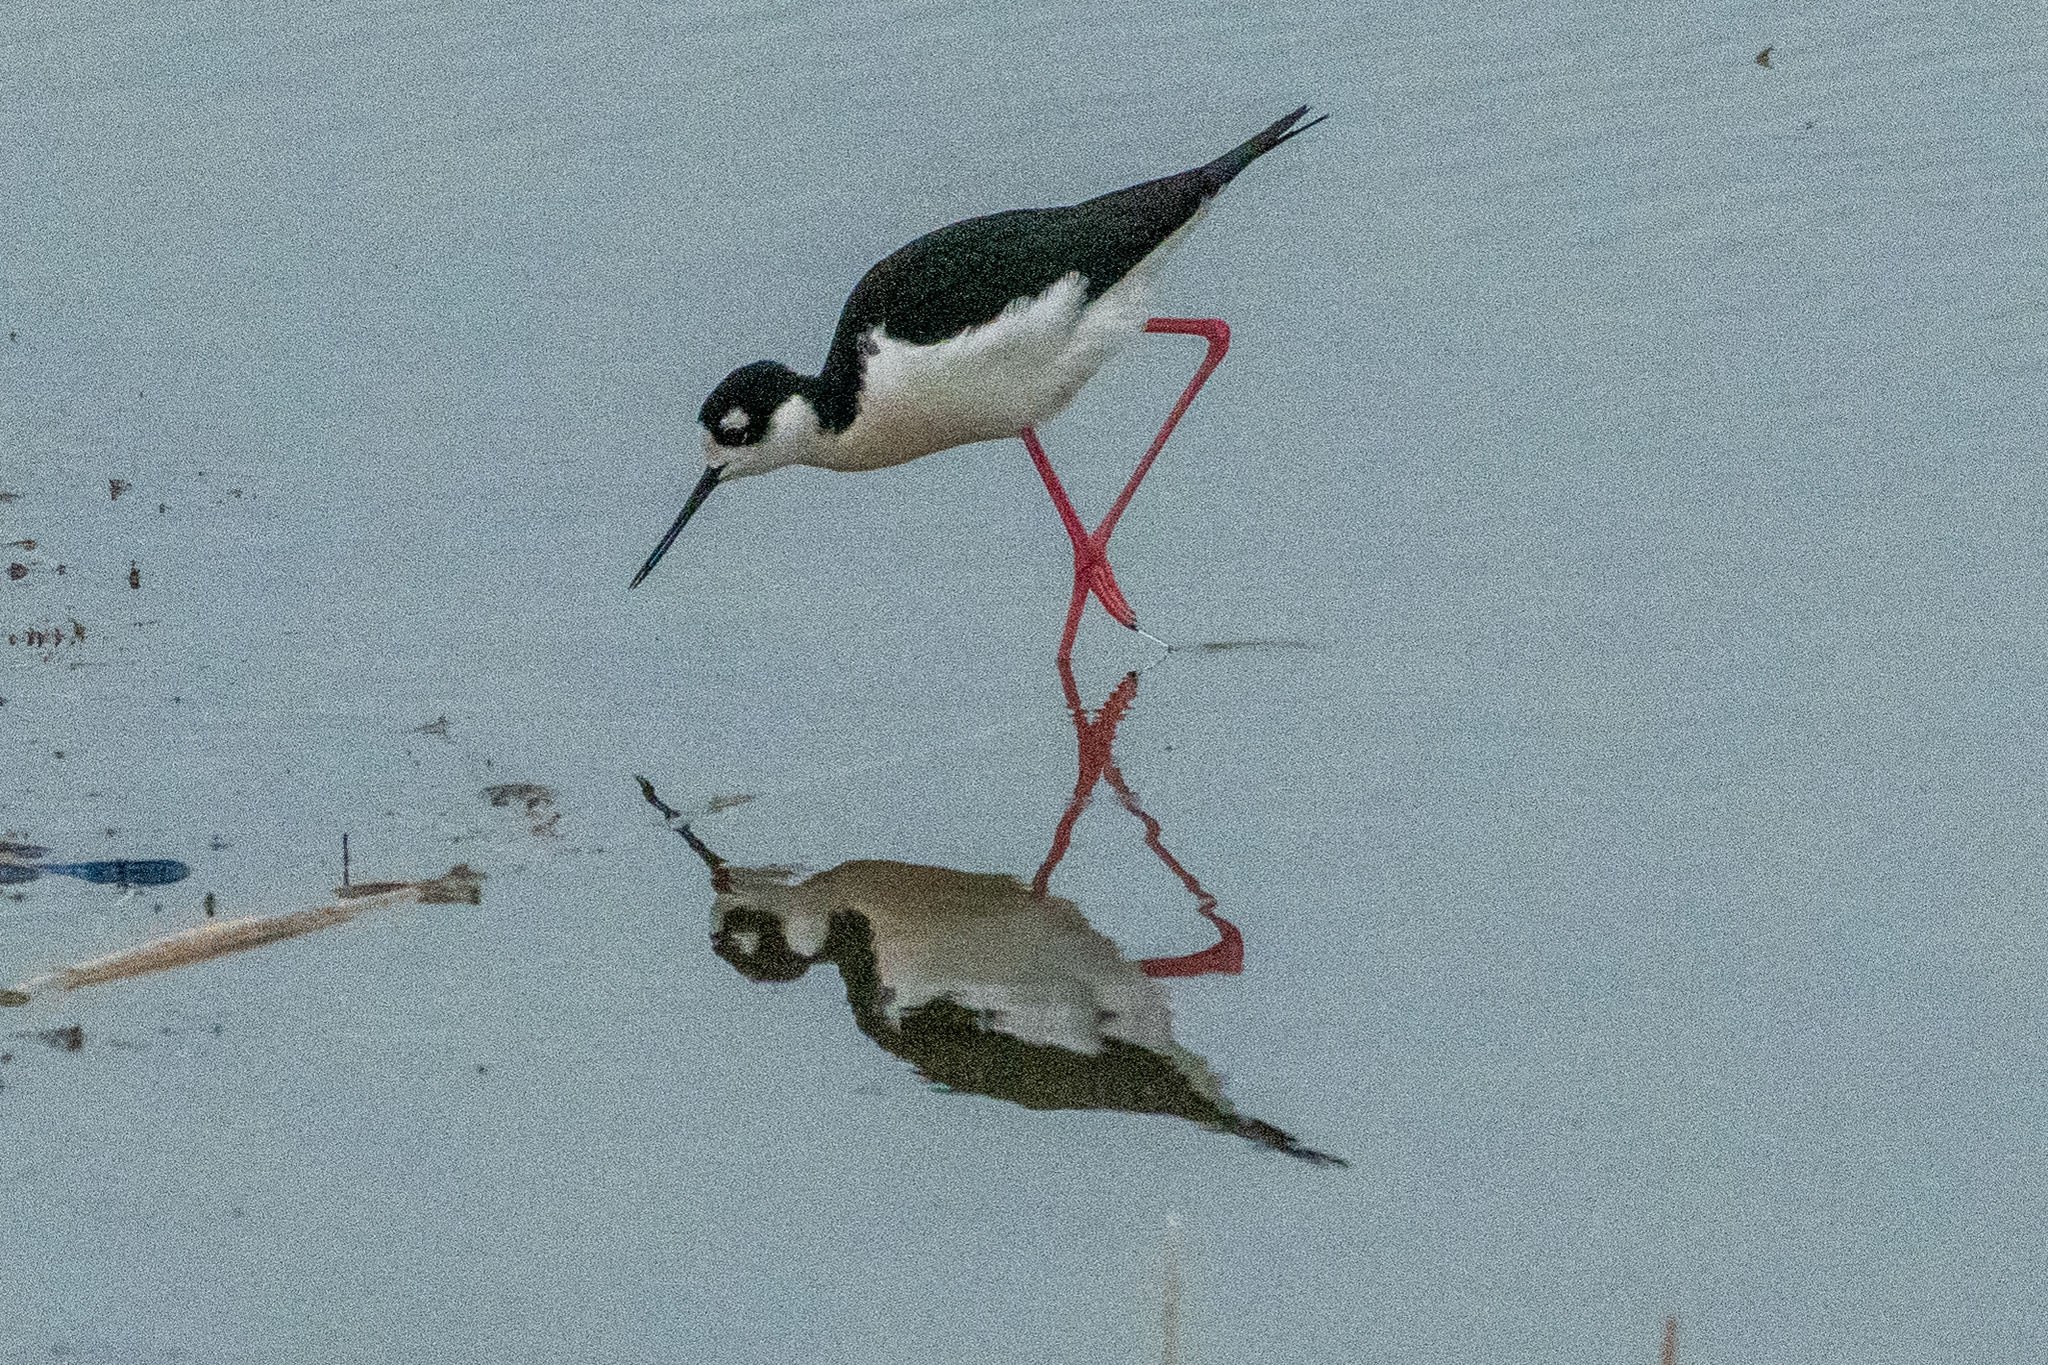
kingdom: Animalia
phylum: Chordata
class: Aves
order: Charadriiformes
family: Recurvirostridae
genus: Himantopus
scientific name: Himantopus mexicanus
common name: Black-necked stilt
